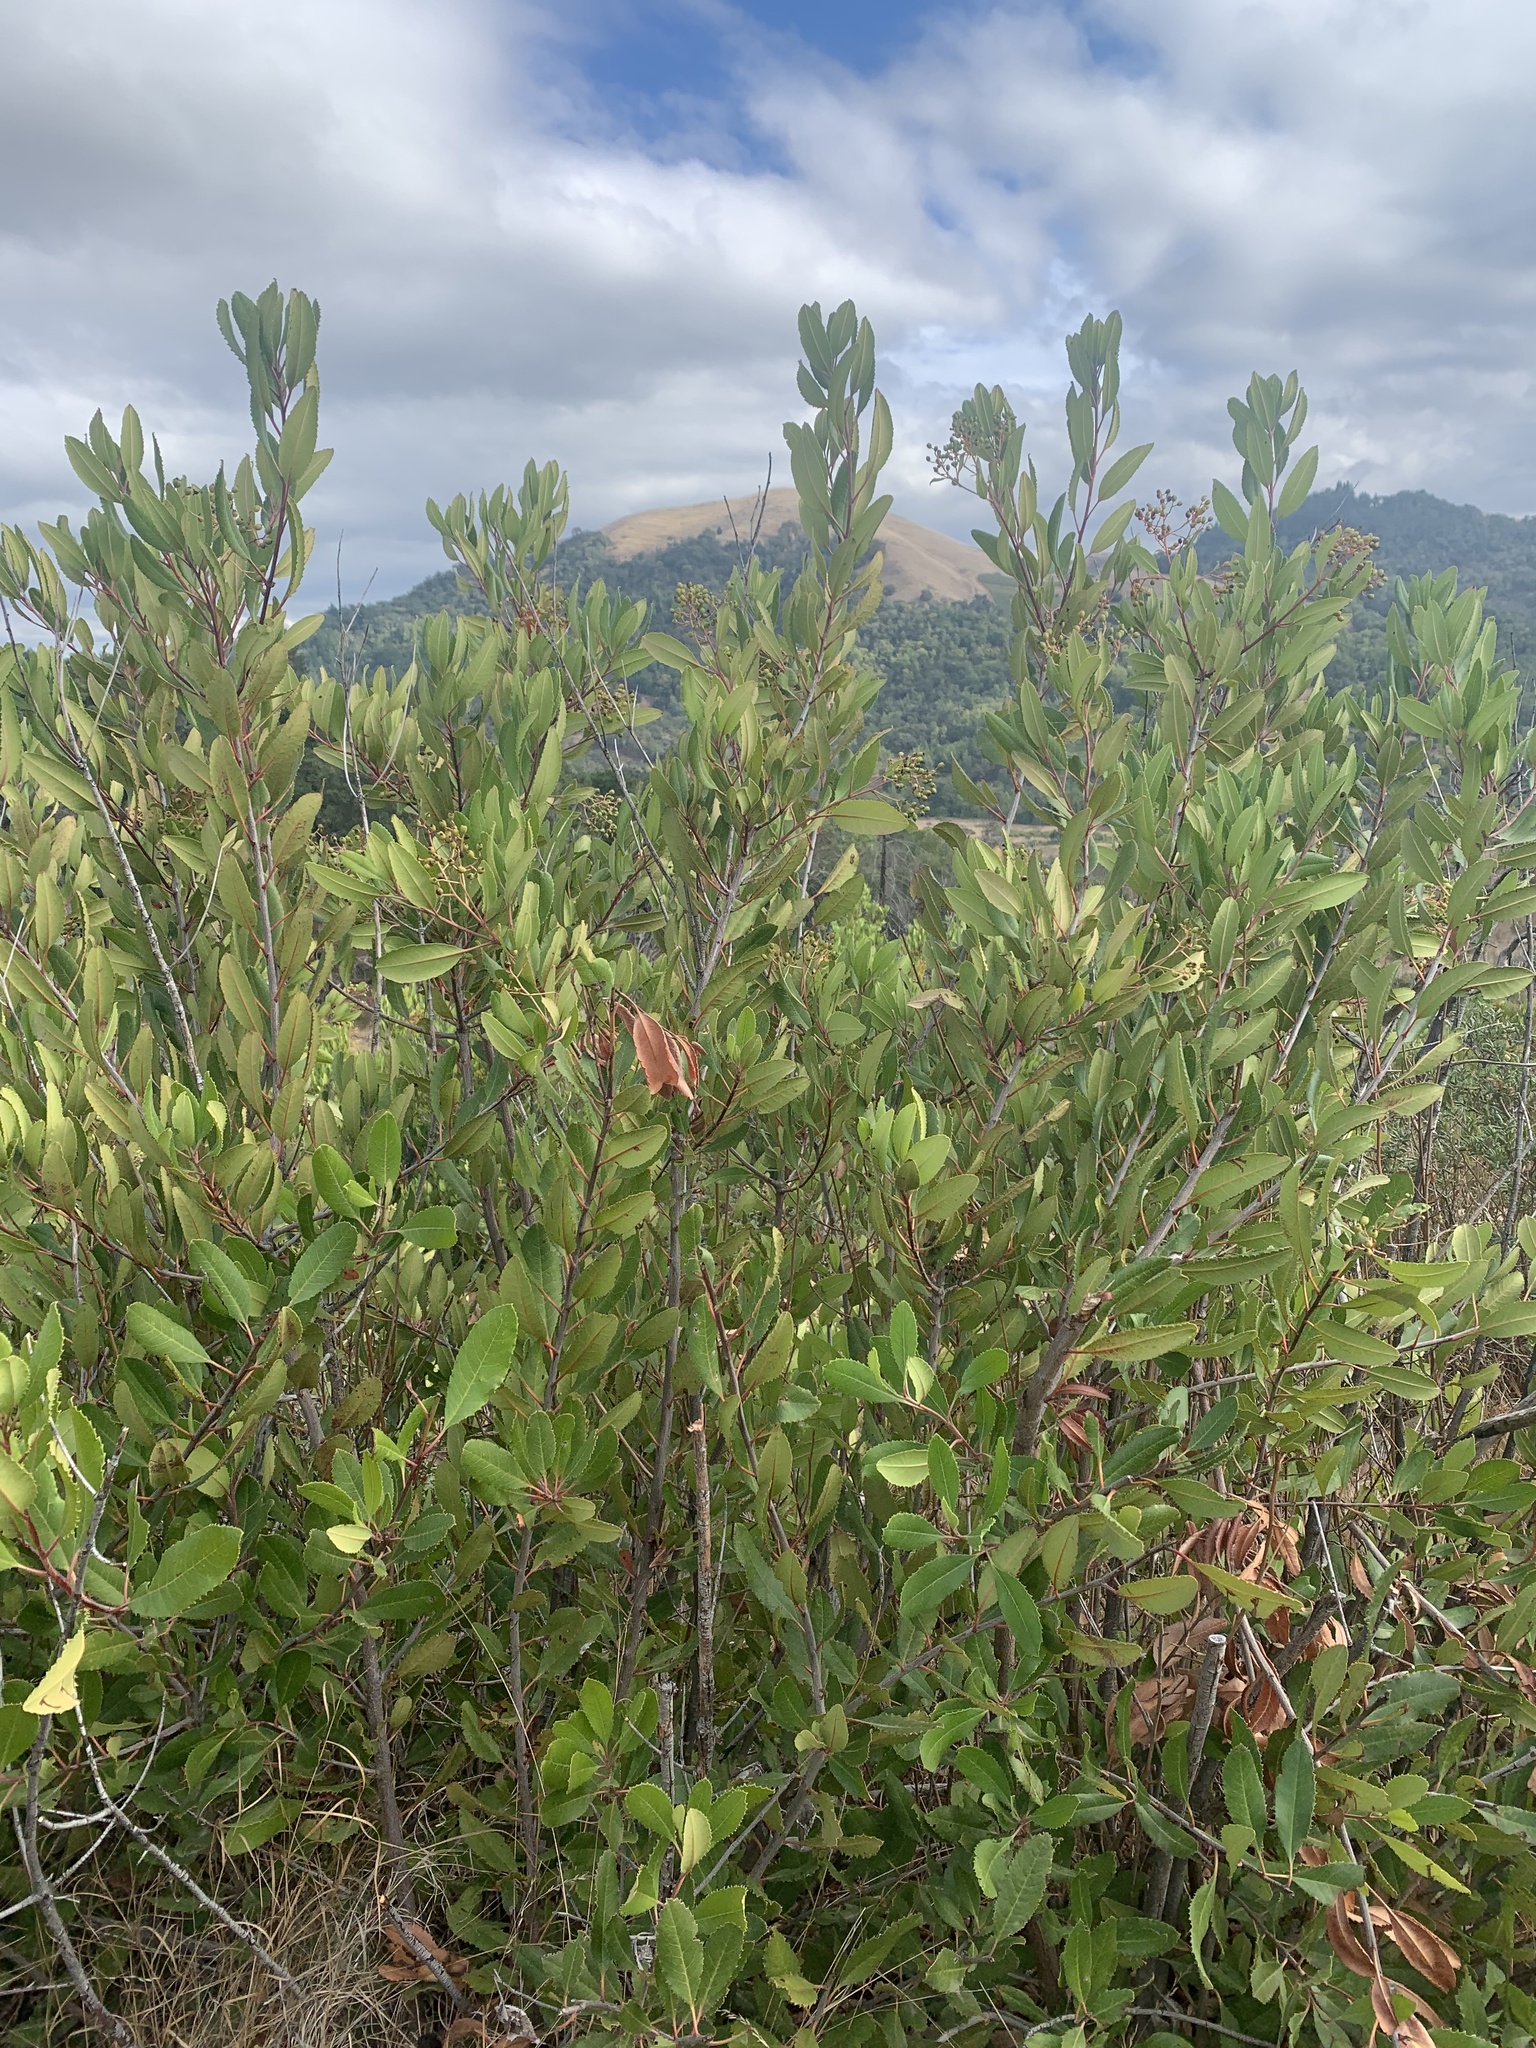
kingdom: Plantae
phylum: Tracheophyta
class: Magnoliopsida
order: Rosales
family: Rosaceae
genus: Heteromeles
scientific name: Heteromeles arbutifolia
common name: California-holly
